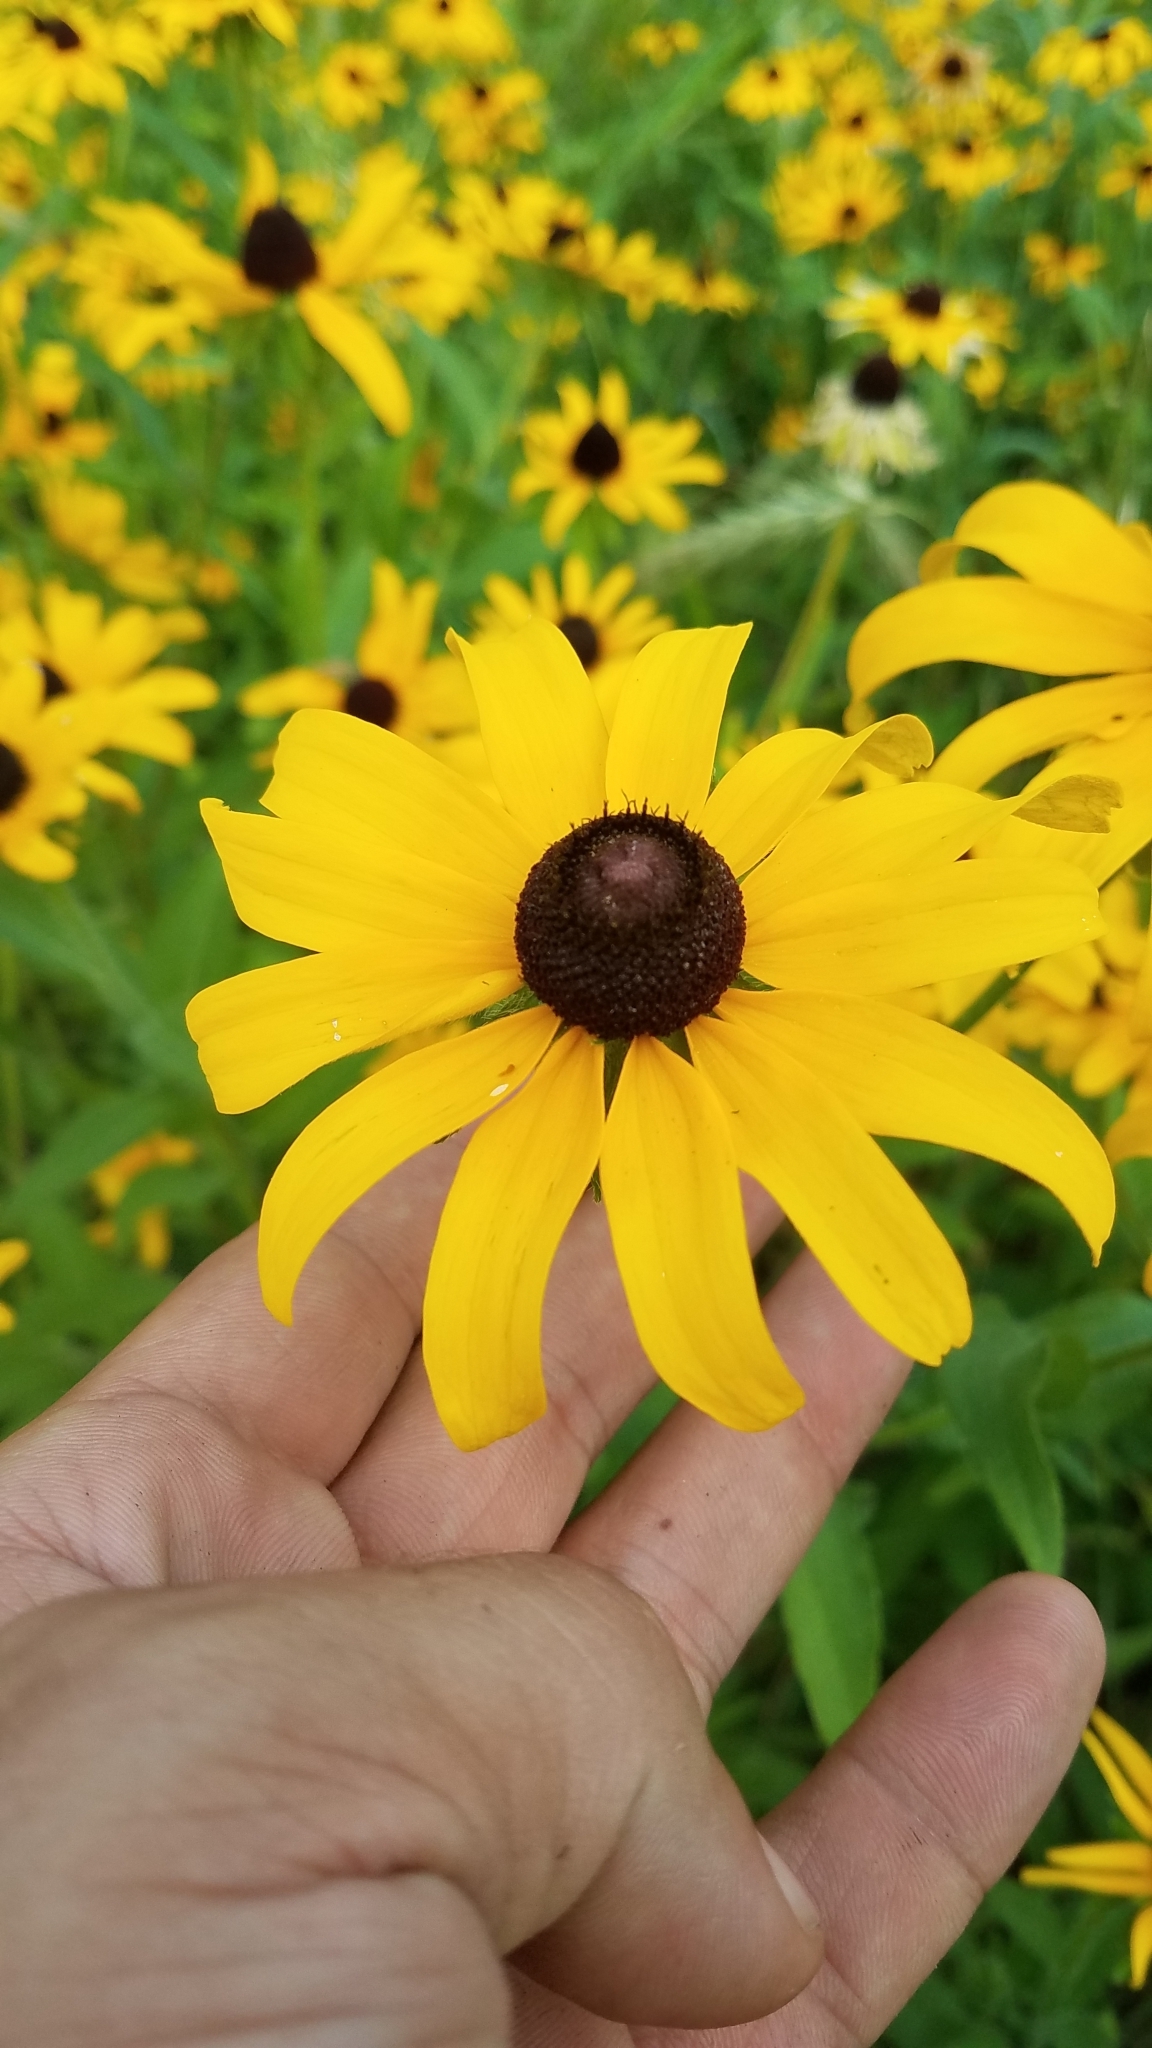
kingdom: Plantae
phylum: Tracheophyta
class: Magnoliopsida
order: Asterales
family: Asteraceae
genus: Rudbeckia
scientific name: Rudbeckia hirta
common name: Black-eyed-susan
